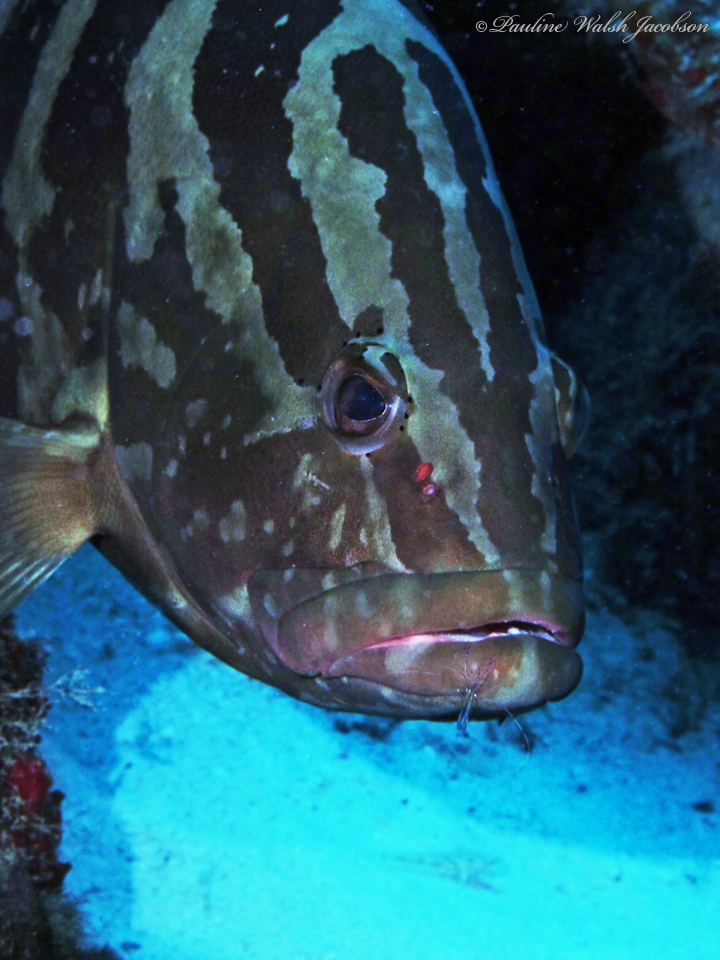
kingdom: Animalia
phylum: Chordata
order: Perciformes
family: Serranidae
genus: Epinephelus
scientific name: Epinephelus striatus
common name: Nassau grouper
